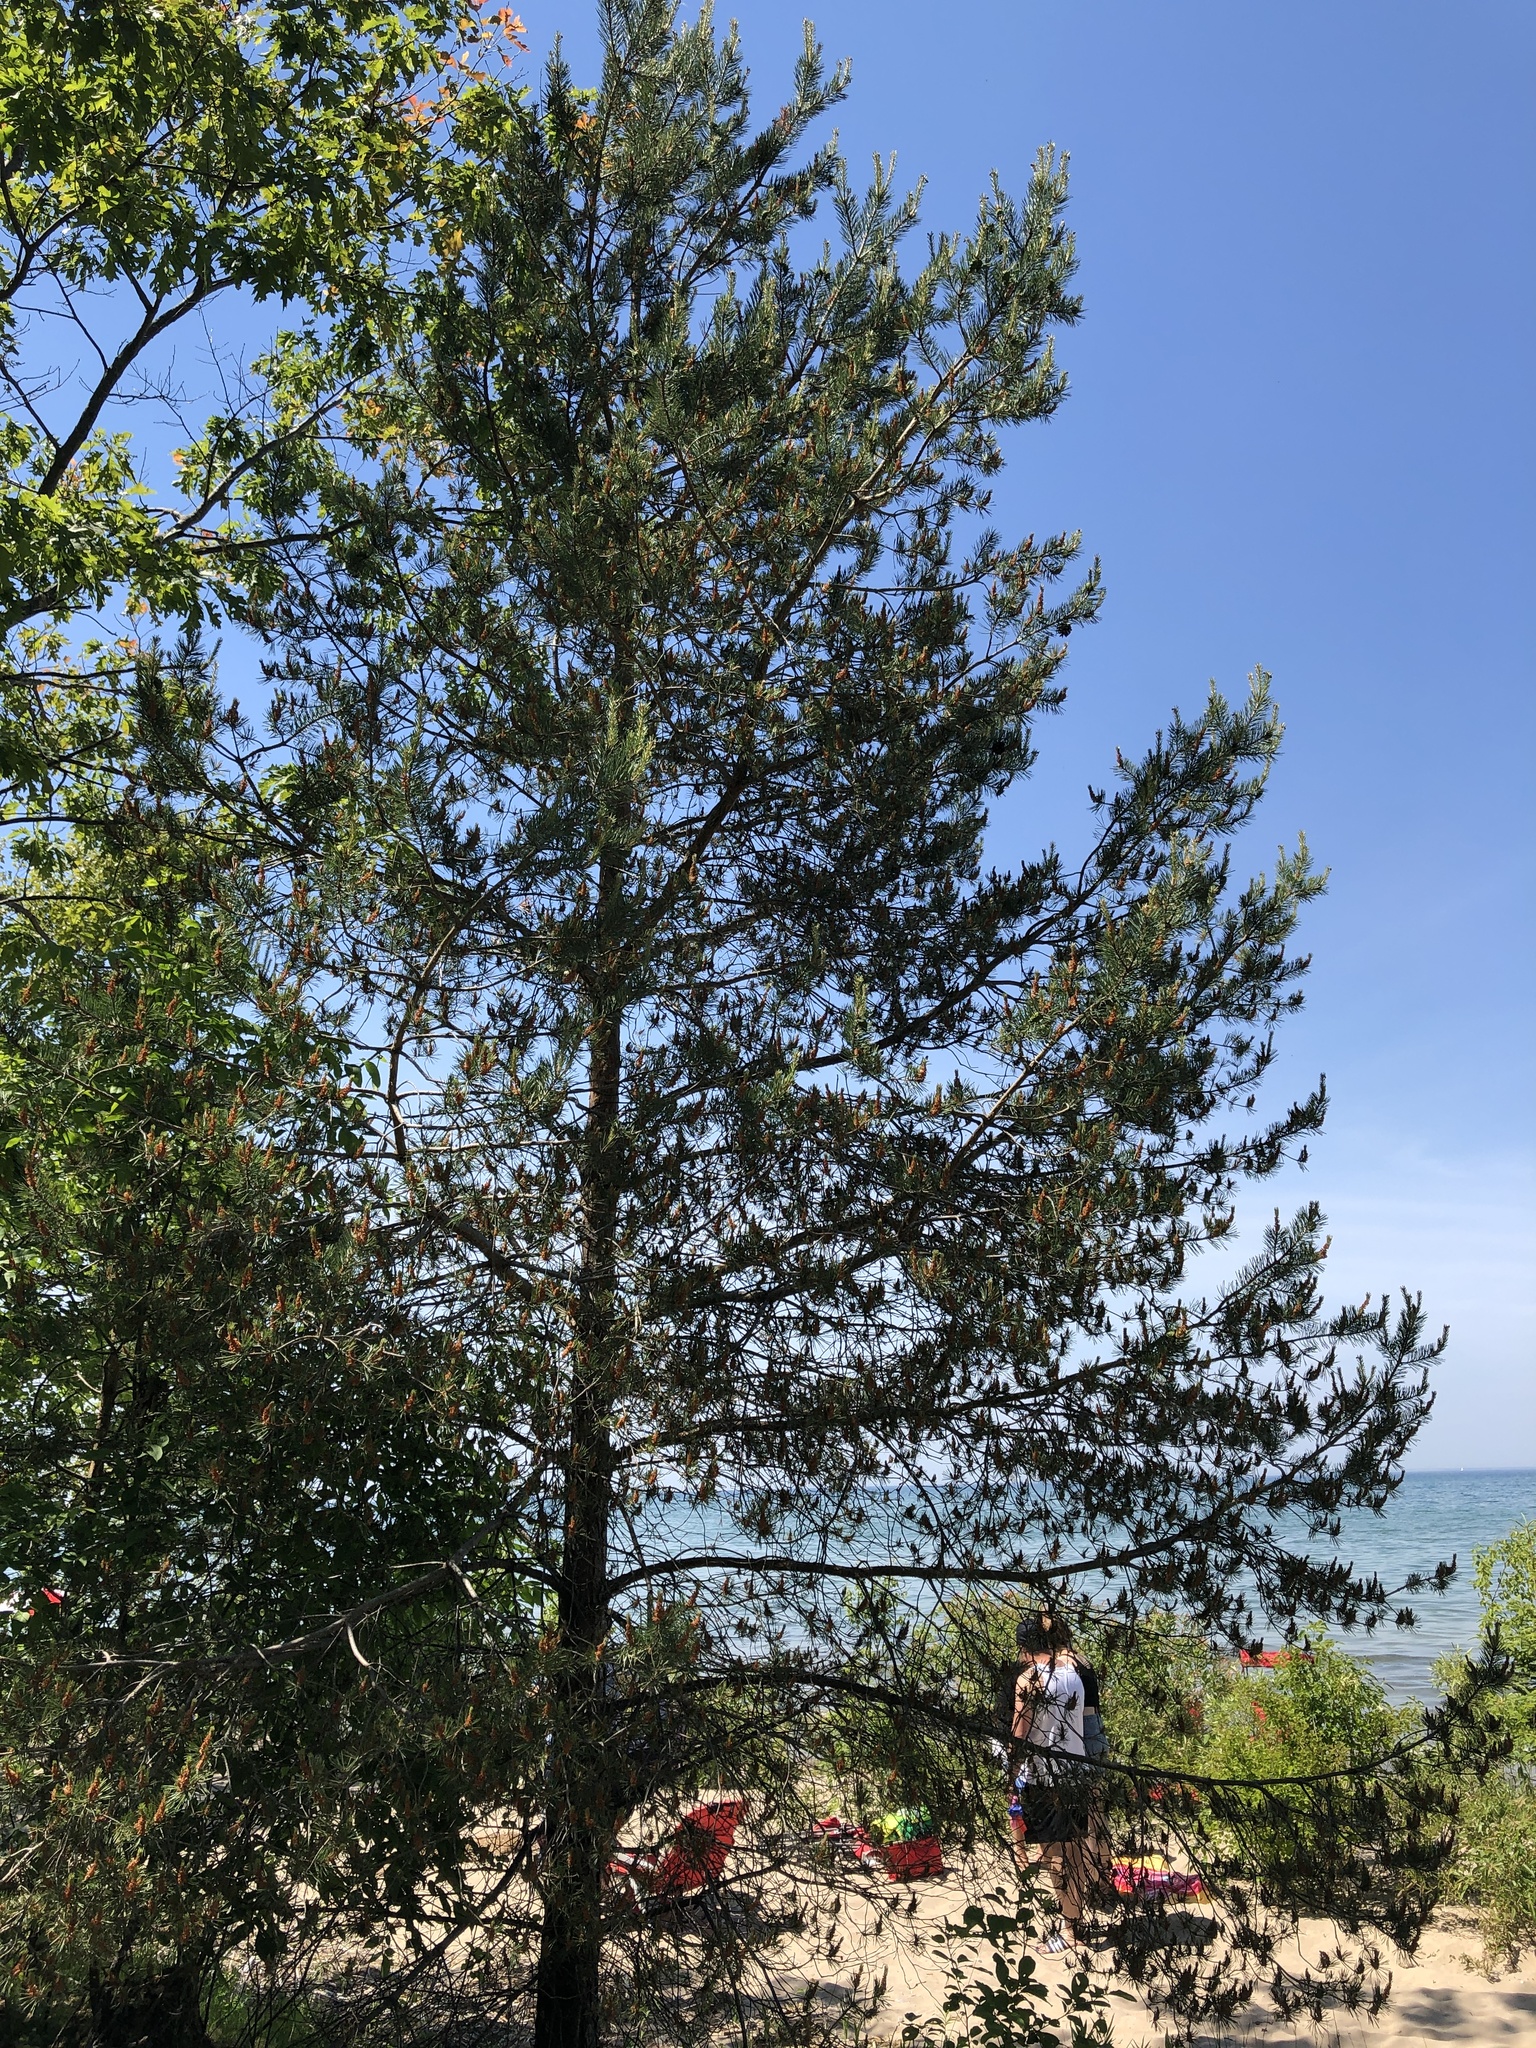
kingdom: Plantae
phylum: Tracheophyta
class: Pinopsida
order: Pinales
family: Pinaceae
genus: Pinus
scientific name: Pinus sylvestris
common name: Scots pine
